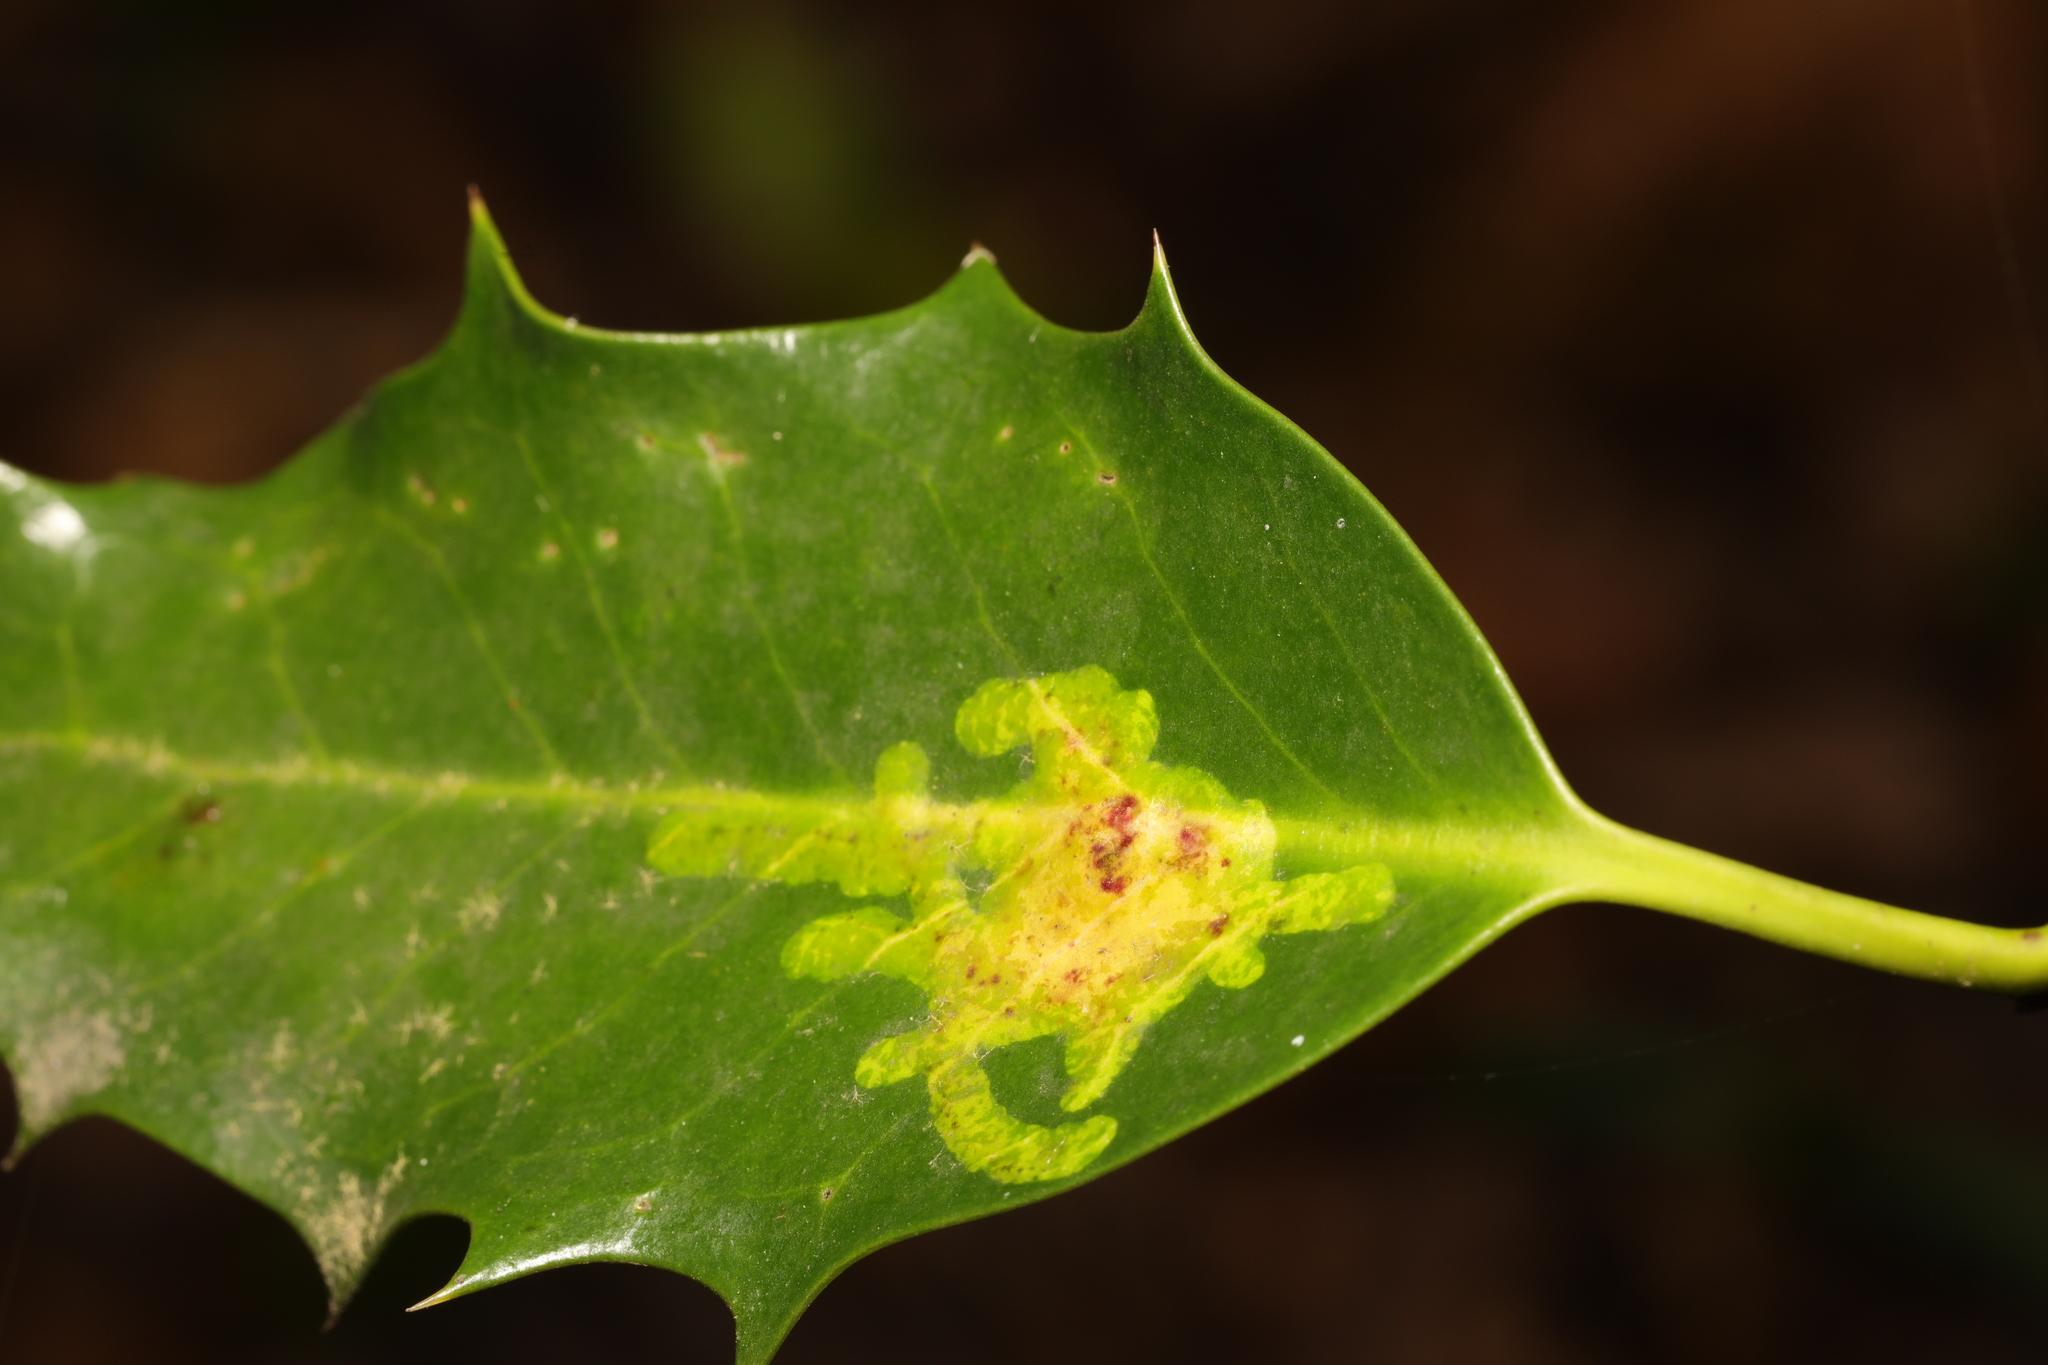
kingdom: Animalia
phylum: Arthropoda
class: Insecta
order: Diptera
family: Agromyzidae
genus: Phytomyza
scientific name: Phytomyza ilicis
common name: Holly leafminer
